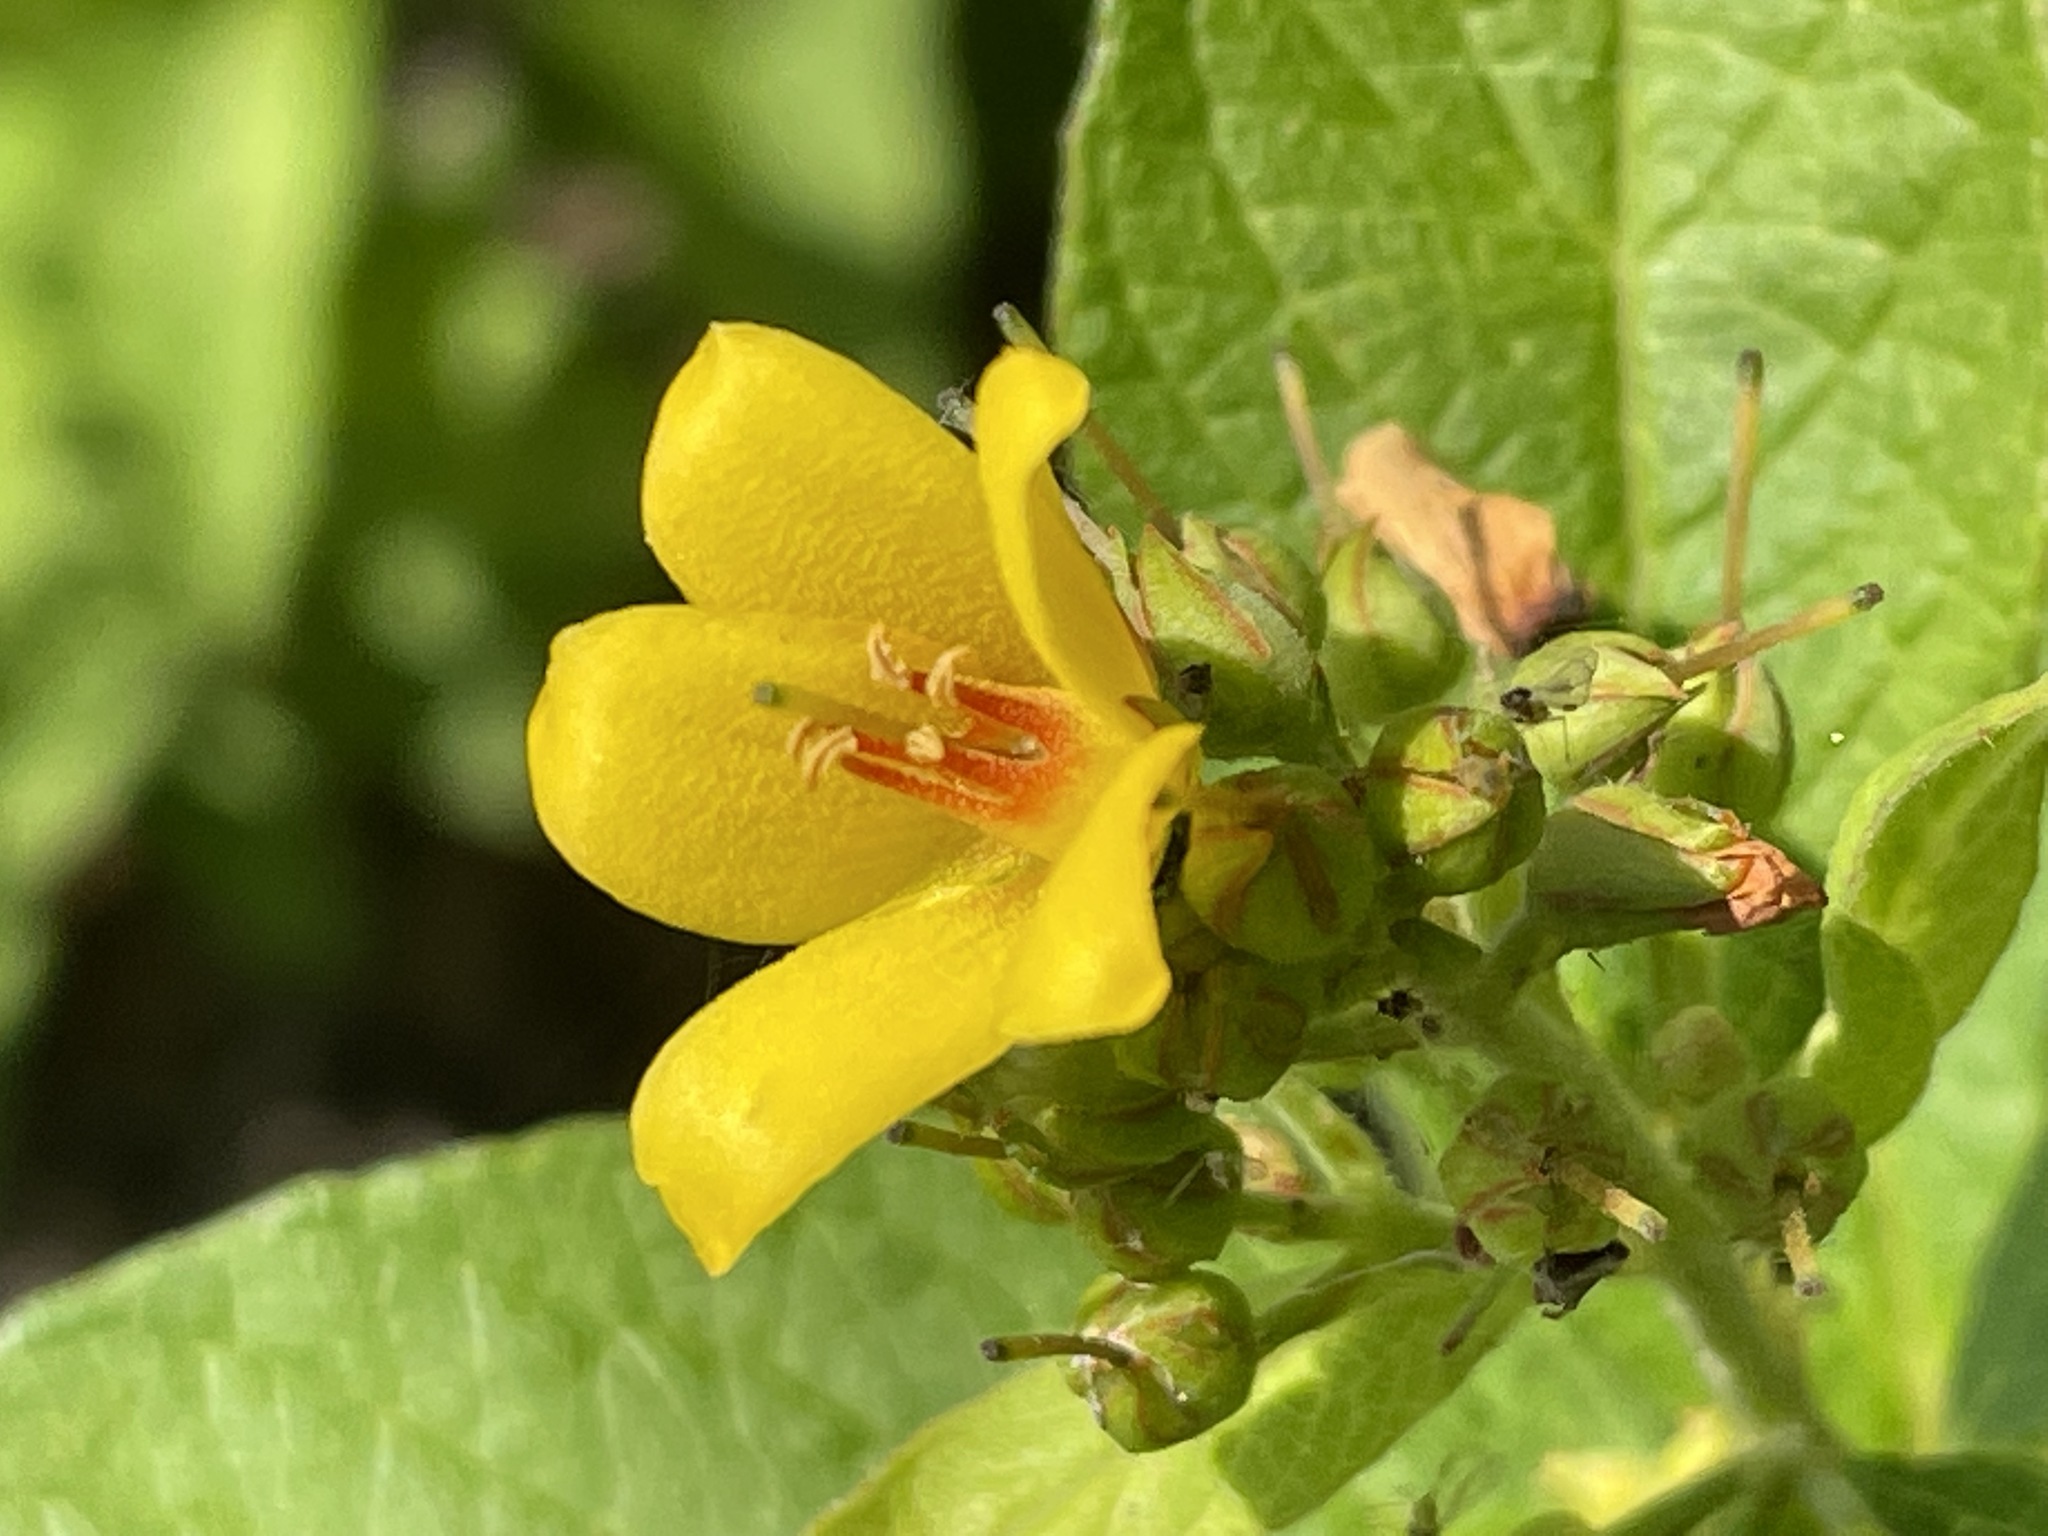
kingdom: Plantae
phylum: Tracheophyta
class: Magnoliopsida
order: Ericales
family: Primulaceae
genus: Lysimachia
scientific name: Lysimachia vulgaris
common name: Yellow loosestrife
